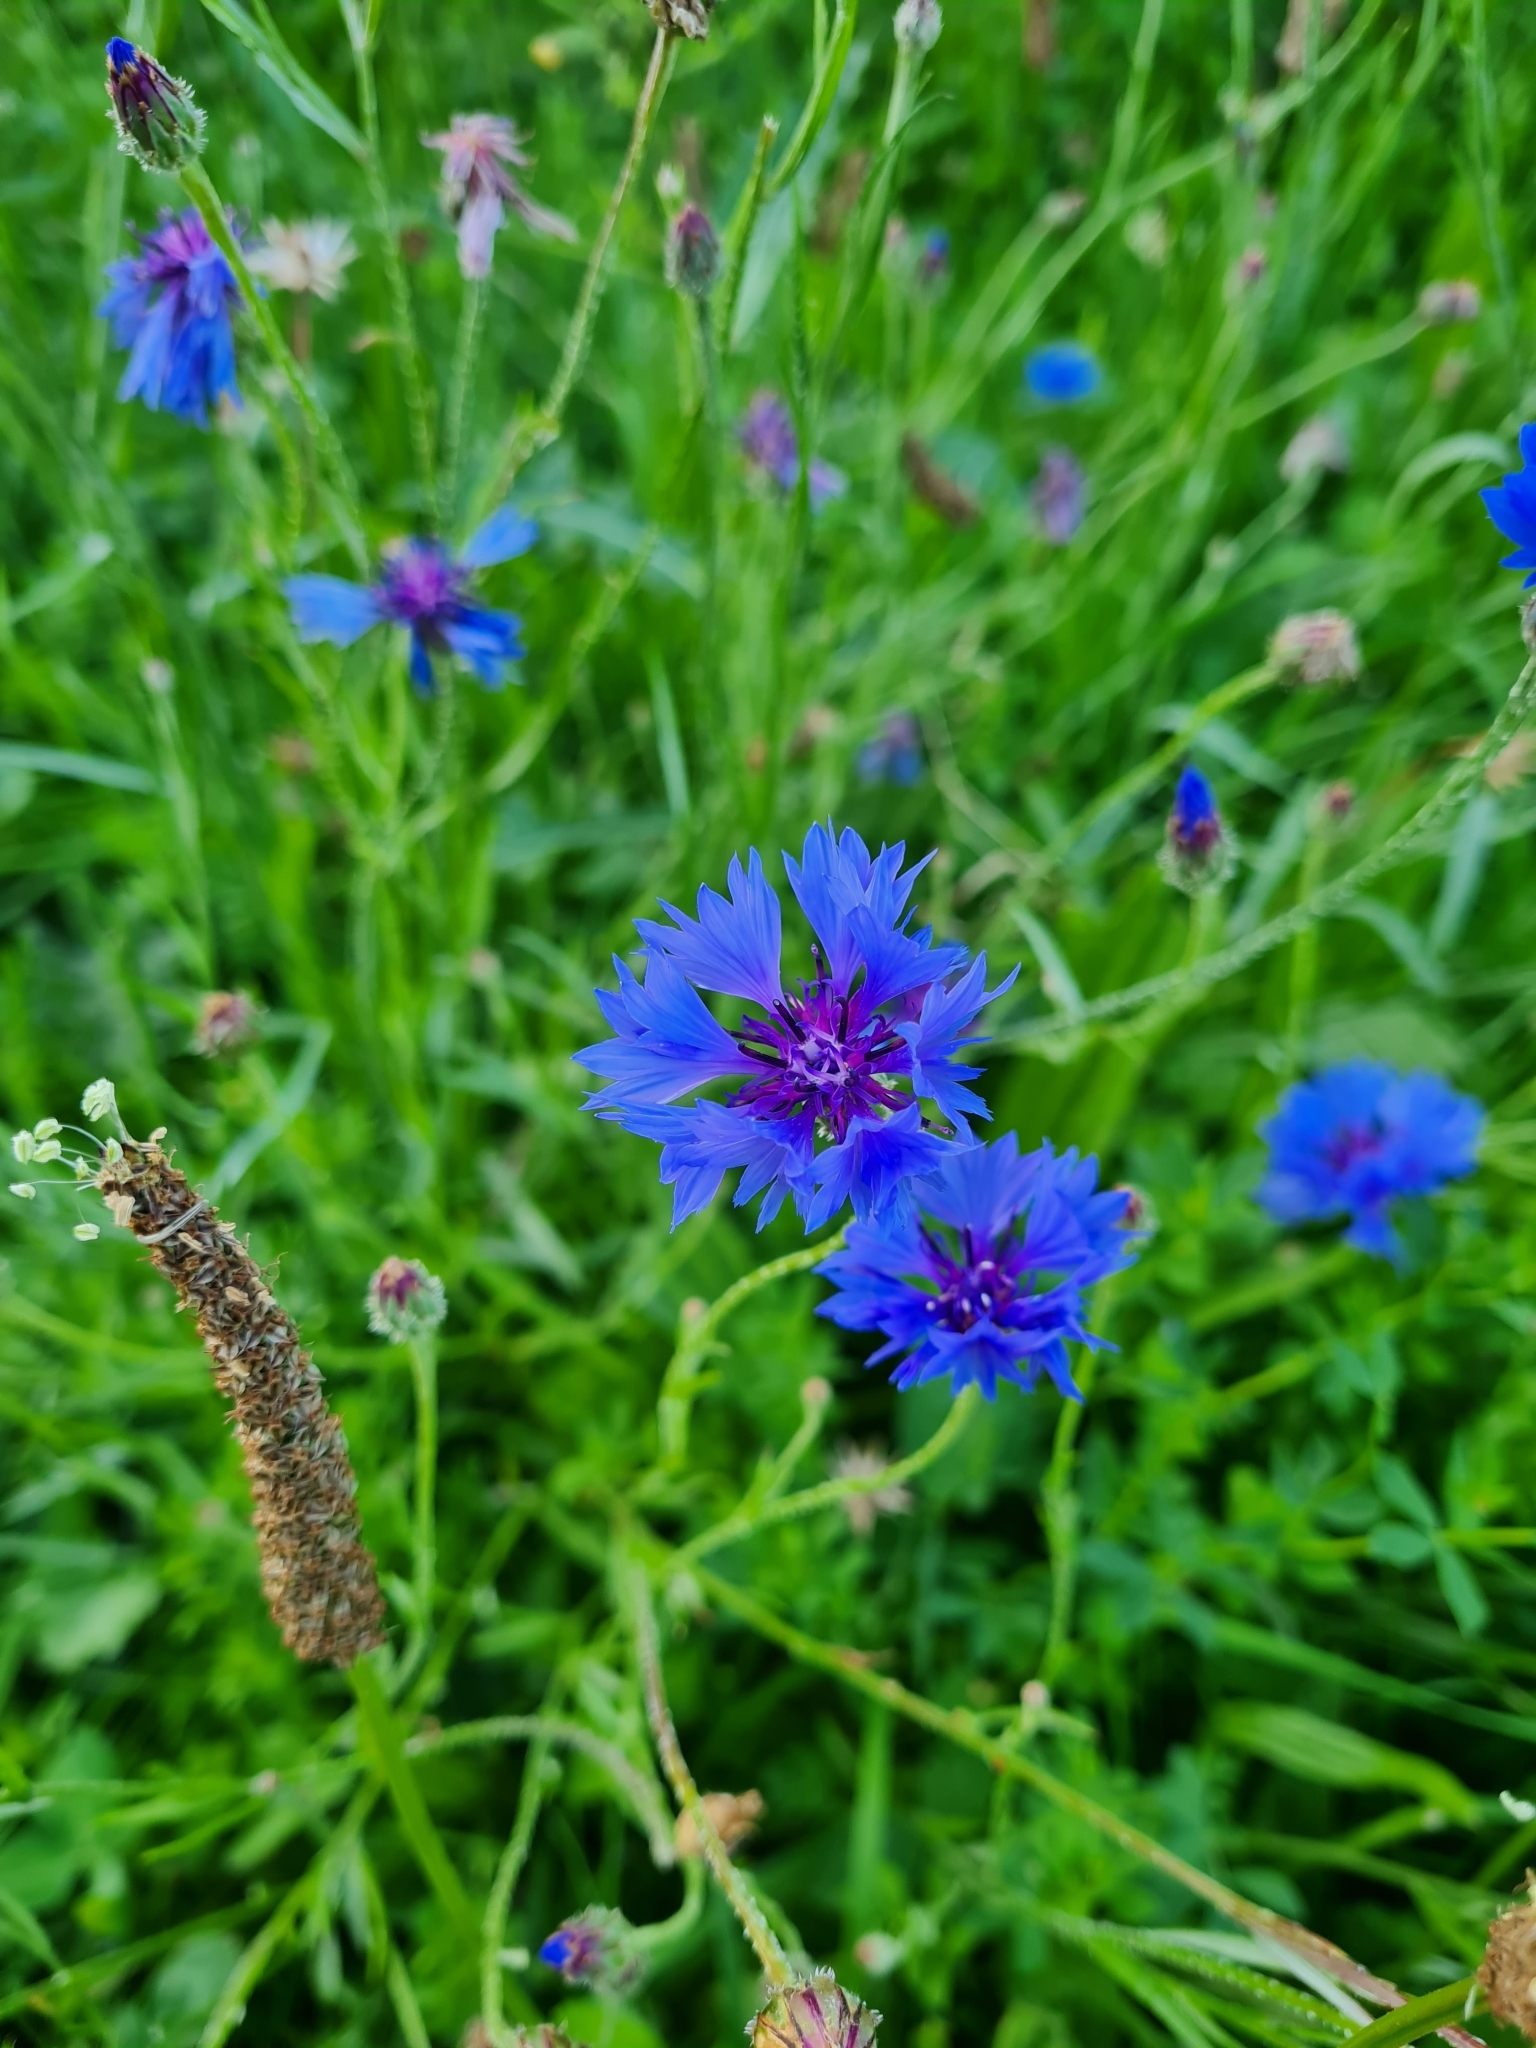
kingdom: Plantae
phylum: Tracheophyta
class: Magnoliopsida
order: Asterales
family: Asteraceae
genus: Centaurea
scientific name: Centaurea cyanus
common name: Cornflower
